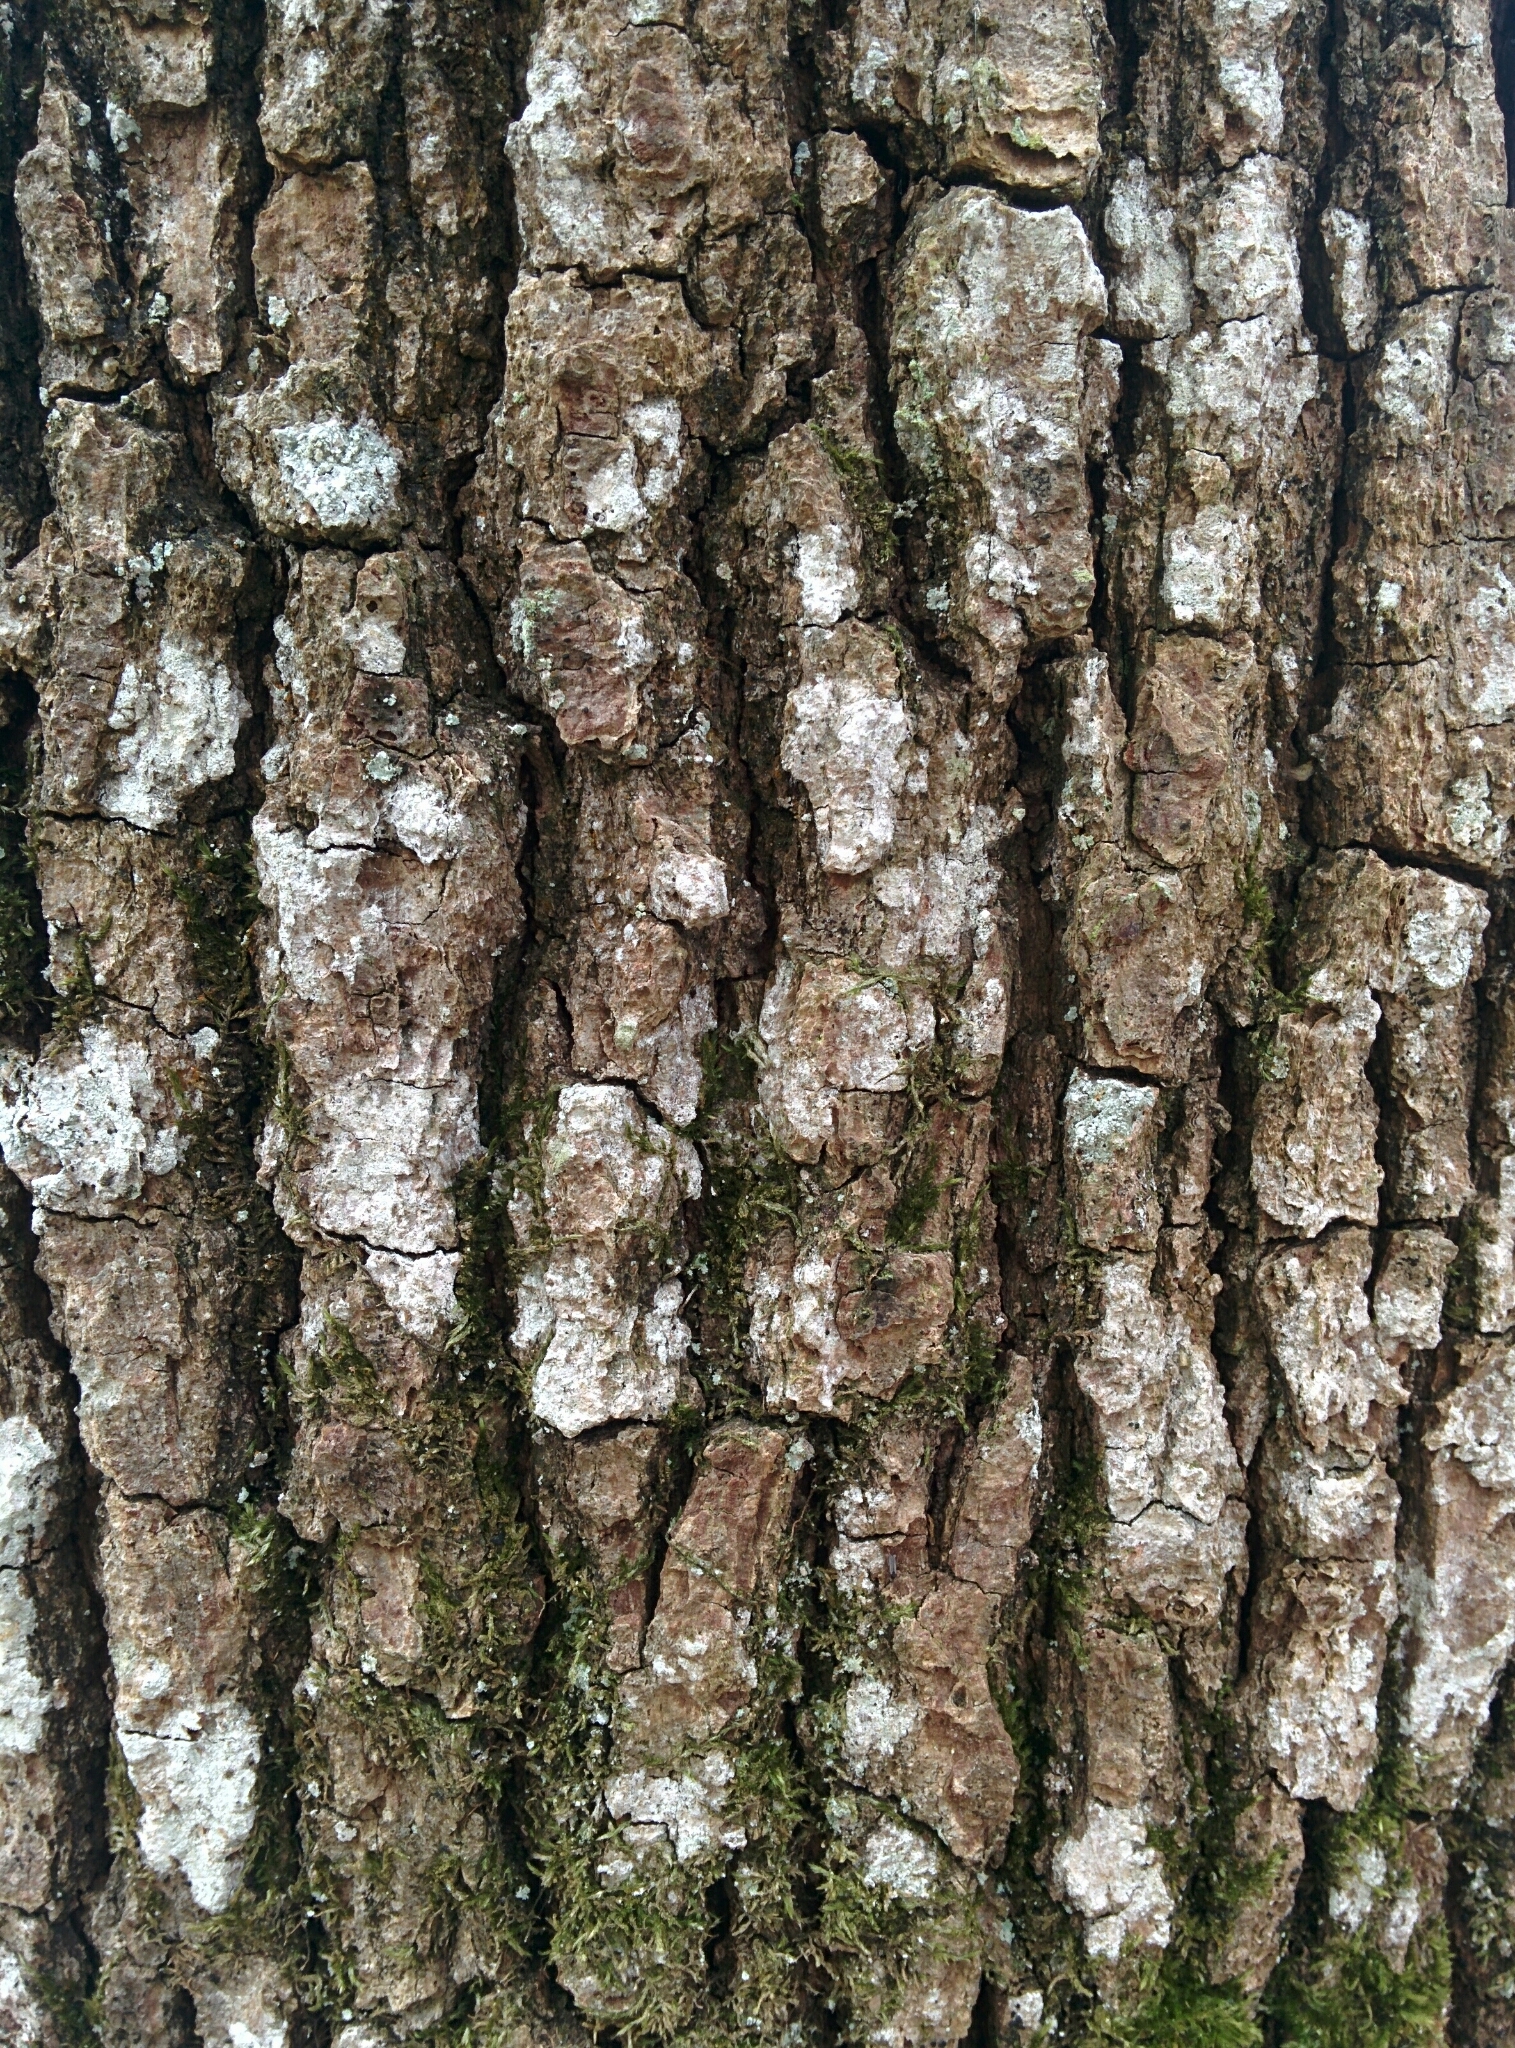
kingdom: Plantae
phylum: Tracheophyta
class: Magnoliopsida
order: Fagales
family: Fagaceae
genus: Quercus
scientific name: Quercus petraea
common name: Sessile oak
